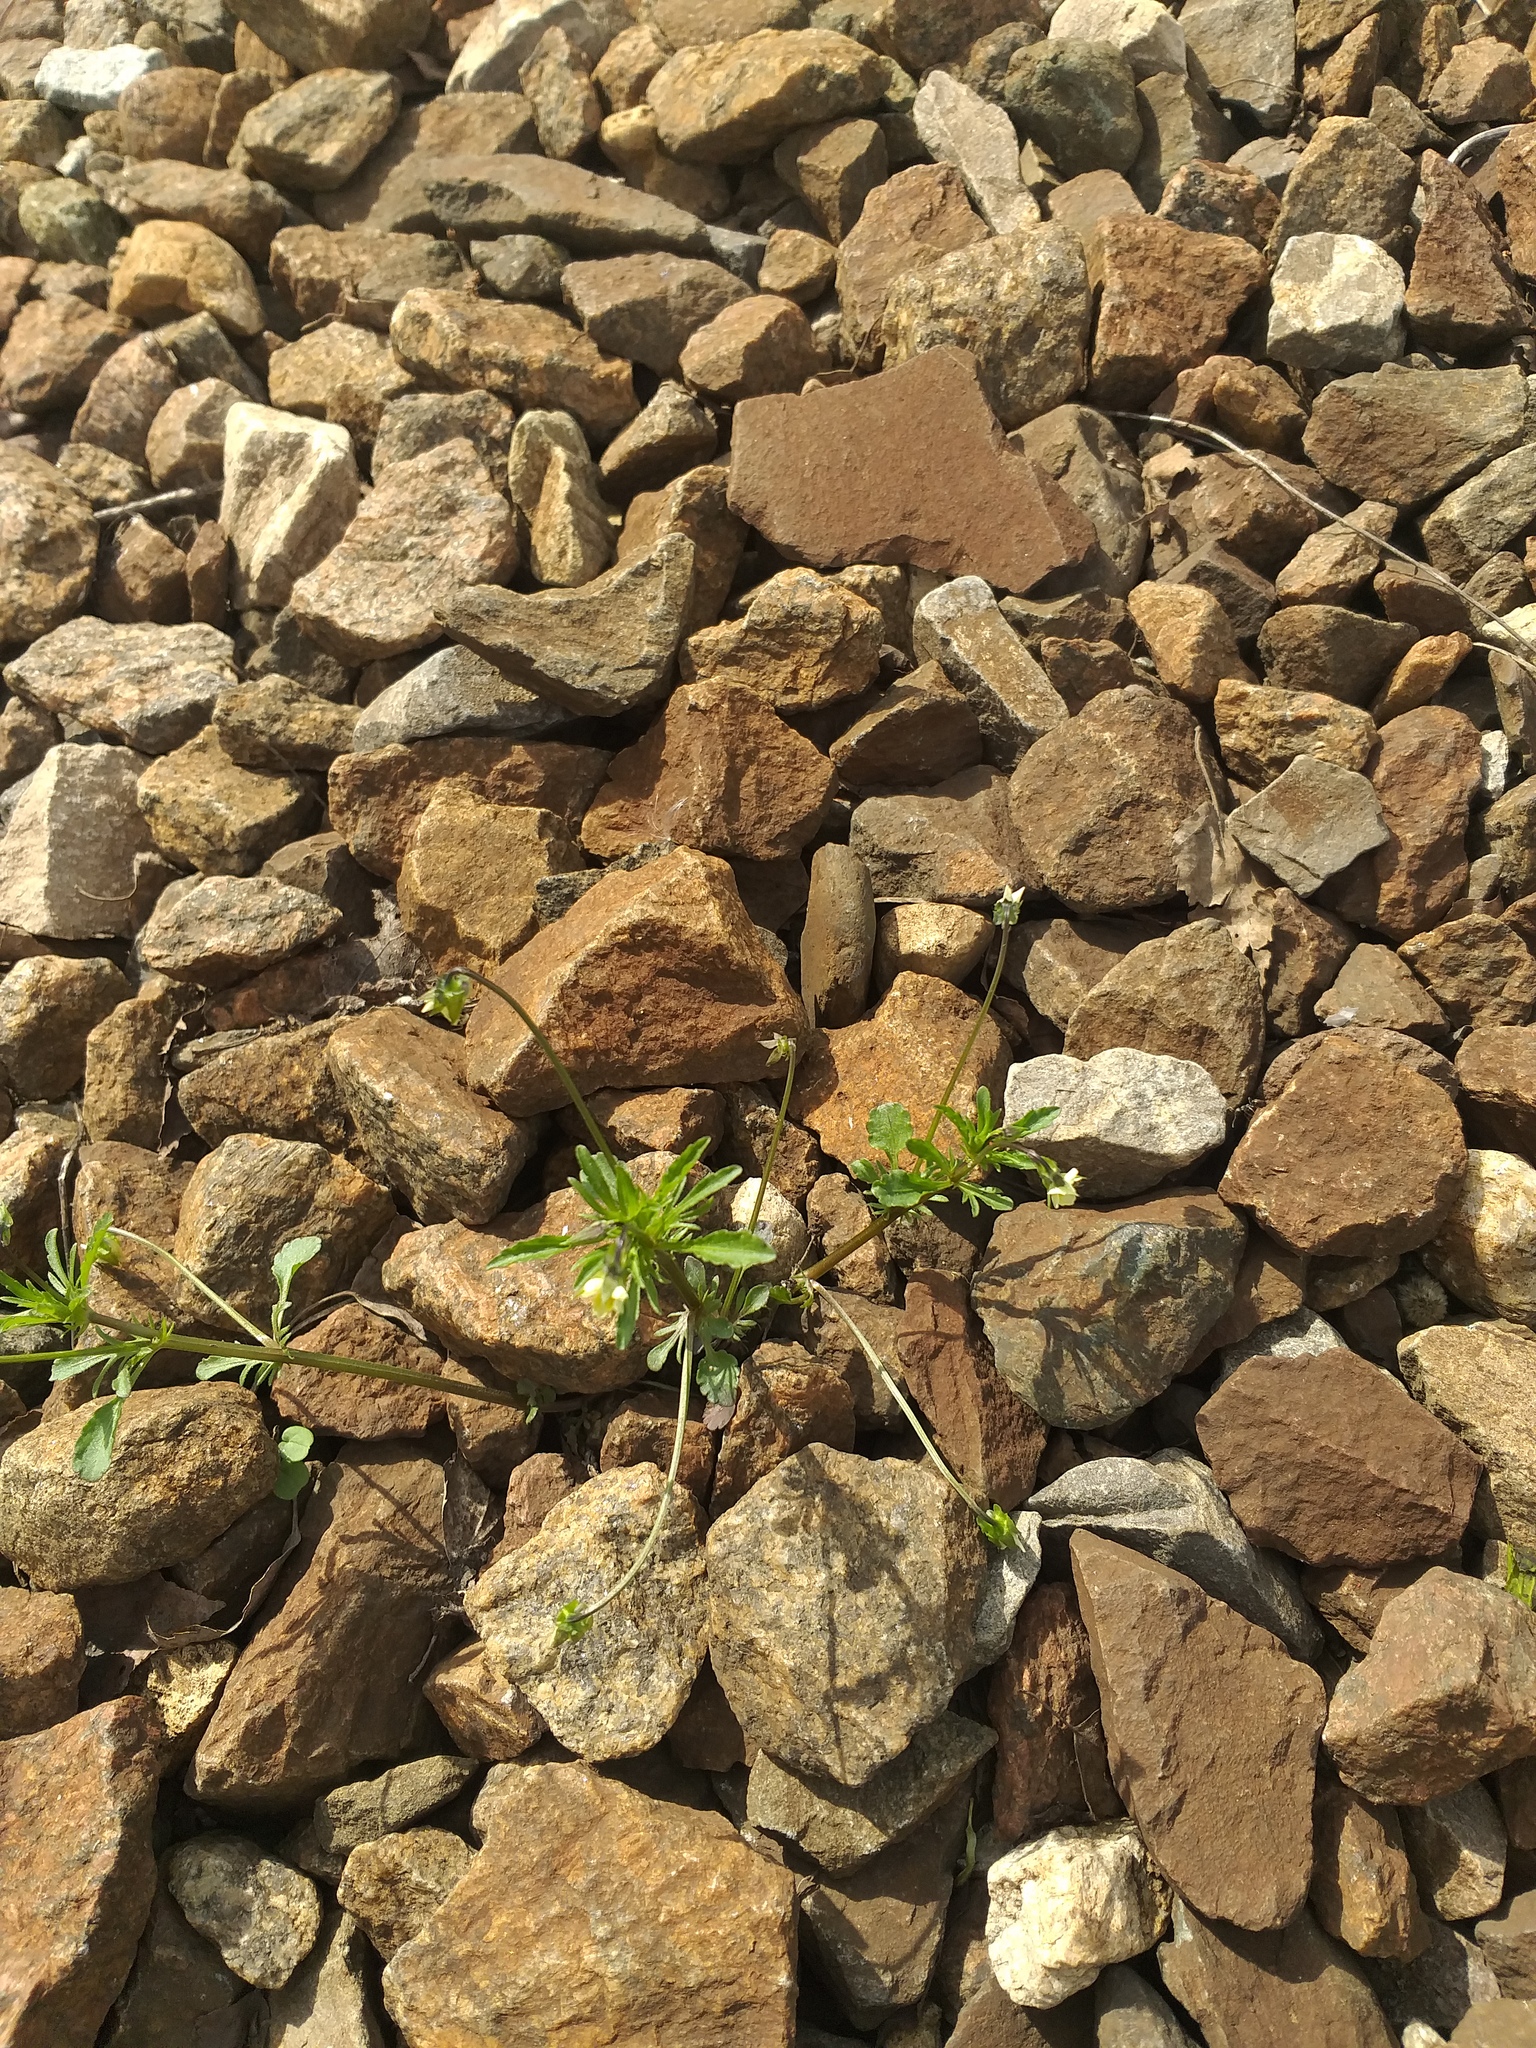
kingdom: Plantae
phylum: Tracheophyta
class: Magnoliopsida
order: Malpighiales
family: Violaceae
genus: Viola
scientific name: Viola arvensis
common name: Field pansy
